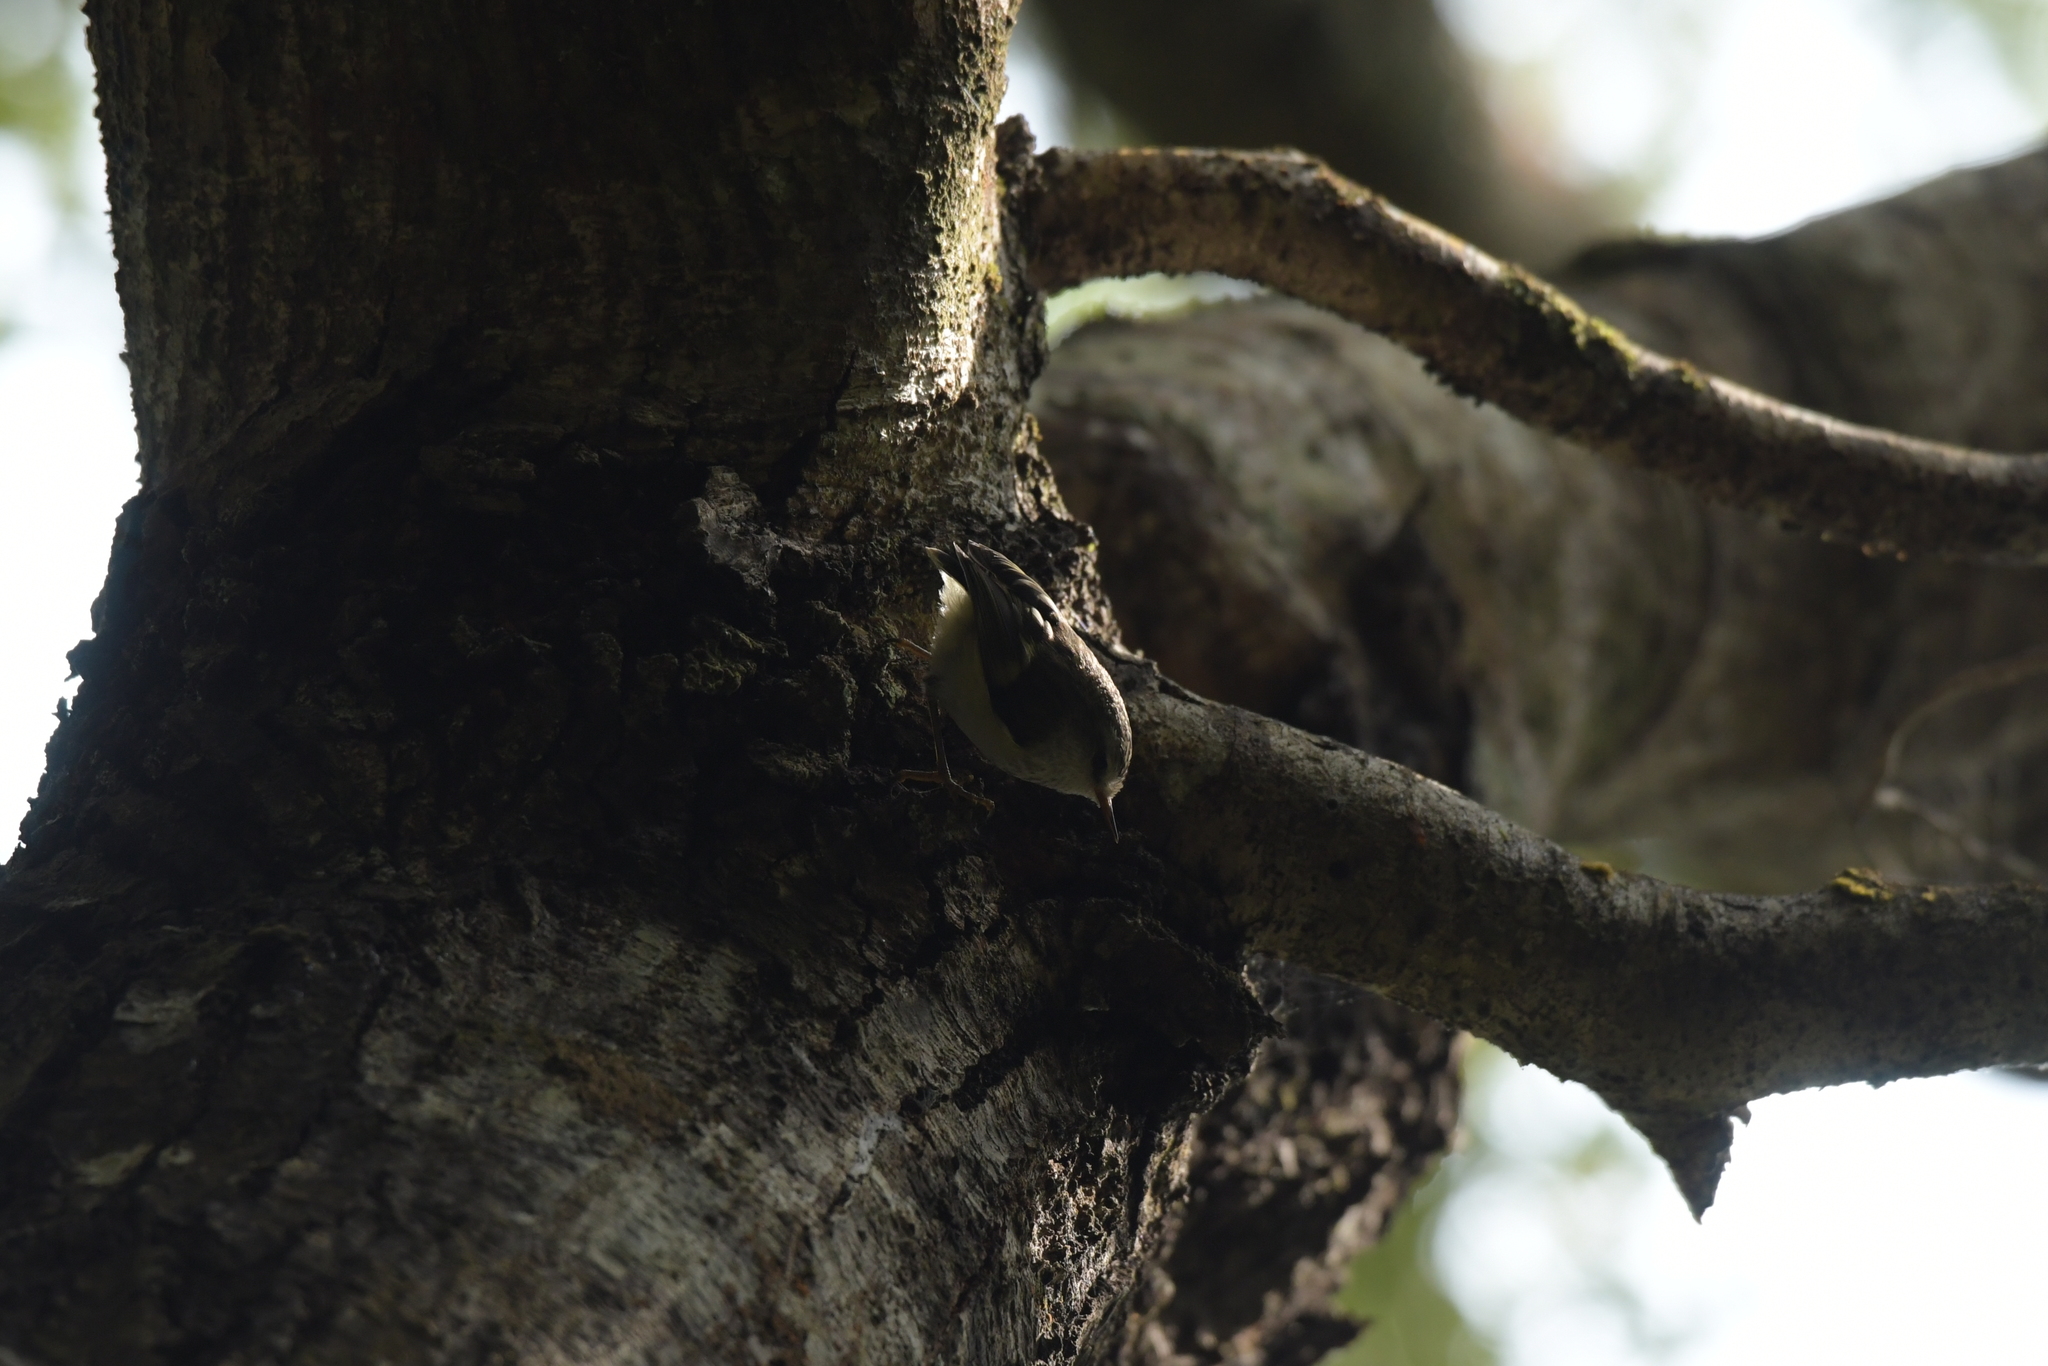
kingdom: Animalia
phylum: Chordata
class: Aves
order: Passeriformes
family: Acanthisittidae
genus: Acanthisitta
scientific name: Acanthisitta chloris
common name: Rifleman
